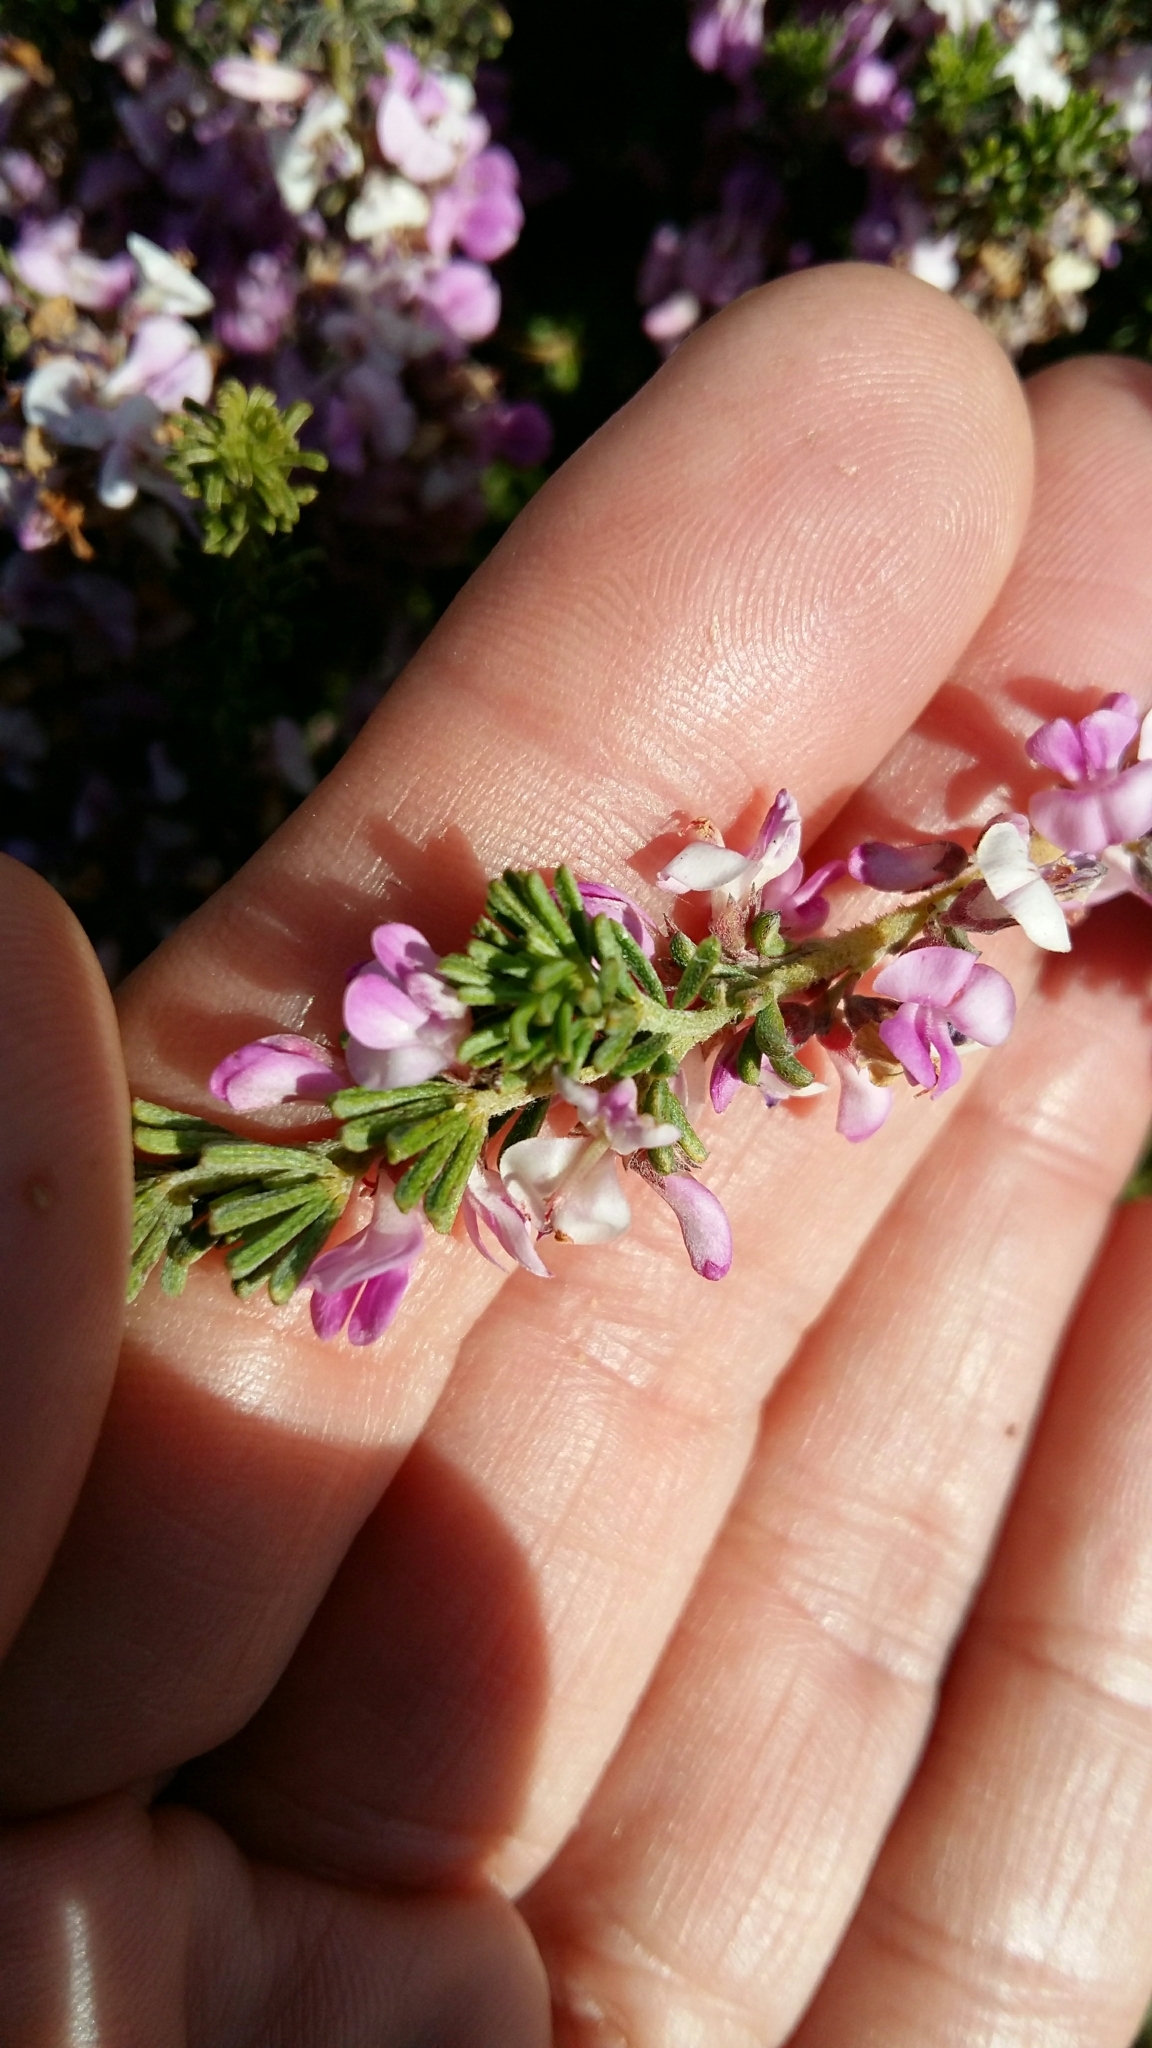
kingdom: Plantae
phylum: Tracheophyta
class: Magnoliopsida
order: Fabales
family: Fabaceae
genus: Indigofera
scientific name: Indigofera pappei
